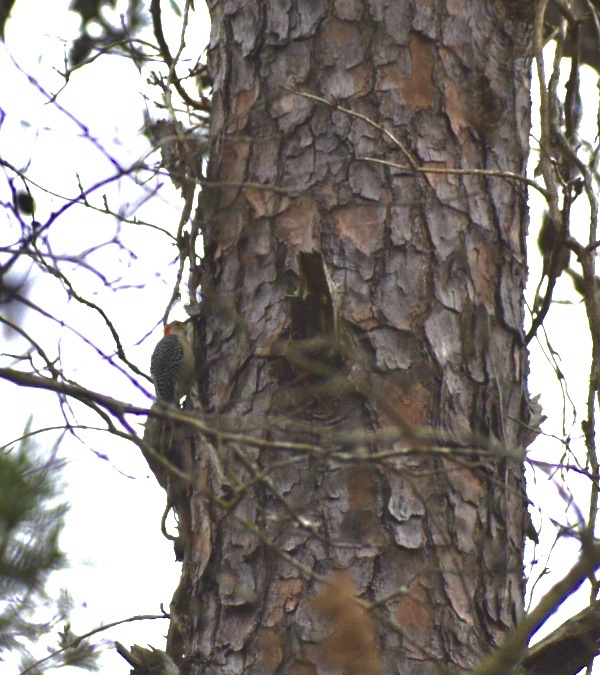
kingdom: Animalia
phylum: Chordata
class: Aves
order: Piciformes
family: Picidae
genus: Melanerpes
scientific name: Melanerpes carolinus
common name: Red-bellied woodpecker
